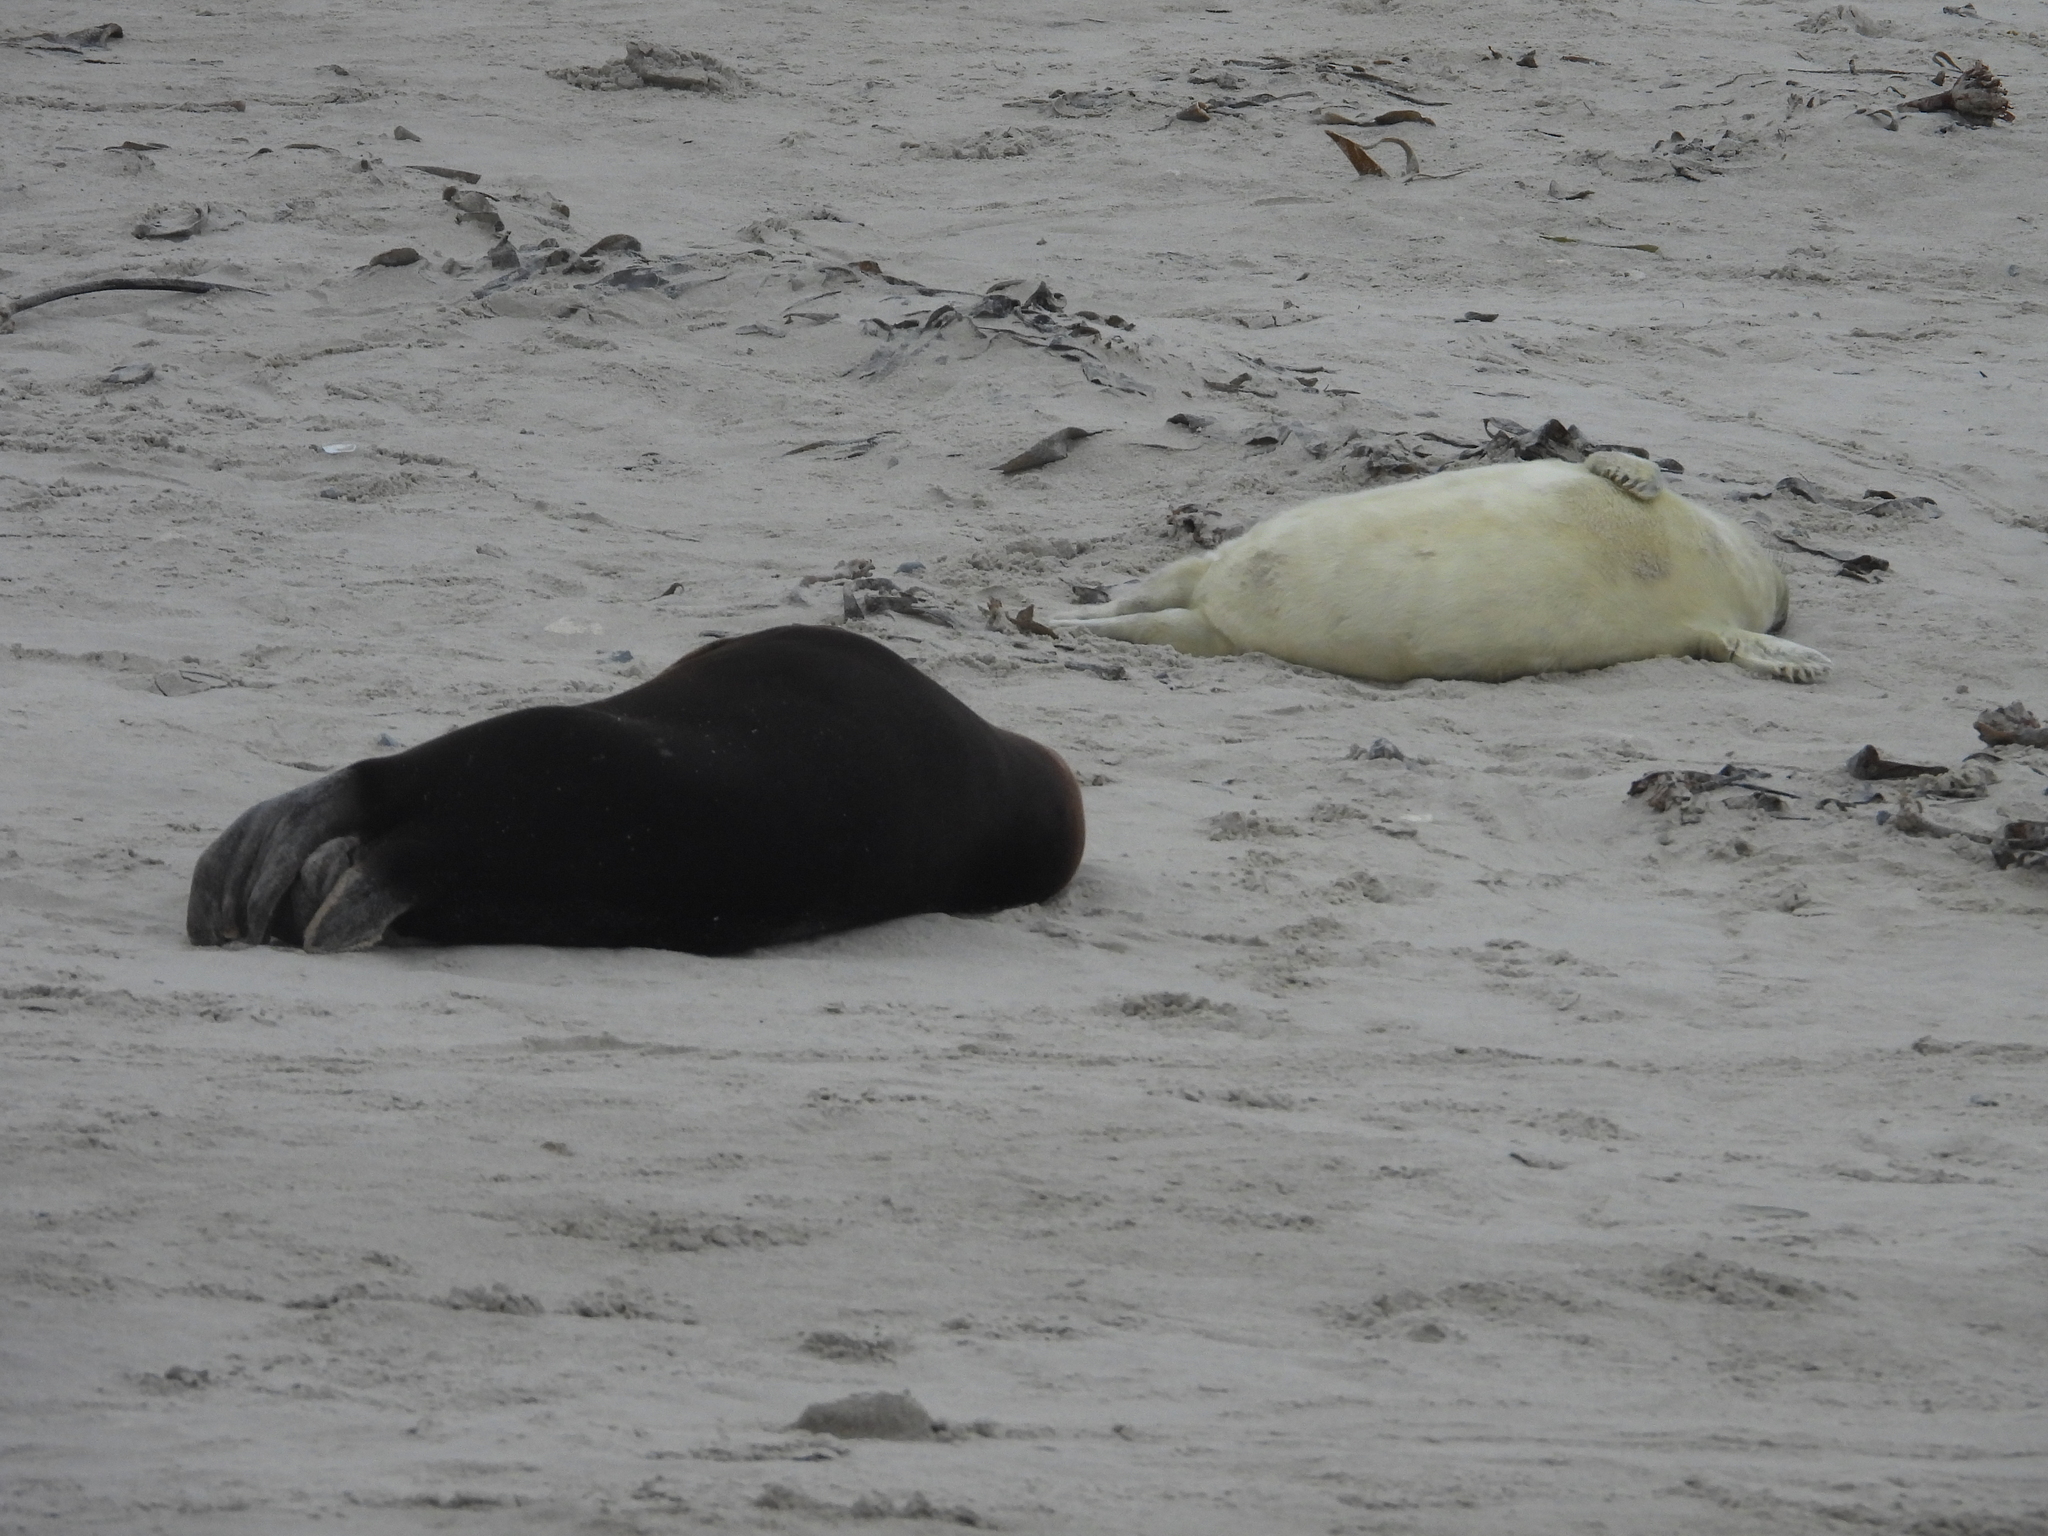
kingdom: Animalia
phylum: Chordata
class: Mammalia
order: Carnivora
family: Phocidae
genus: Halichoerus
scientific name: Halichoerus grypus
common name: Grey seal
